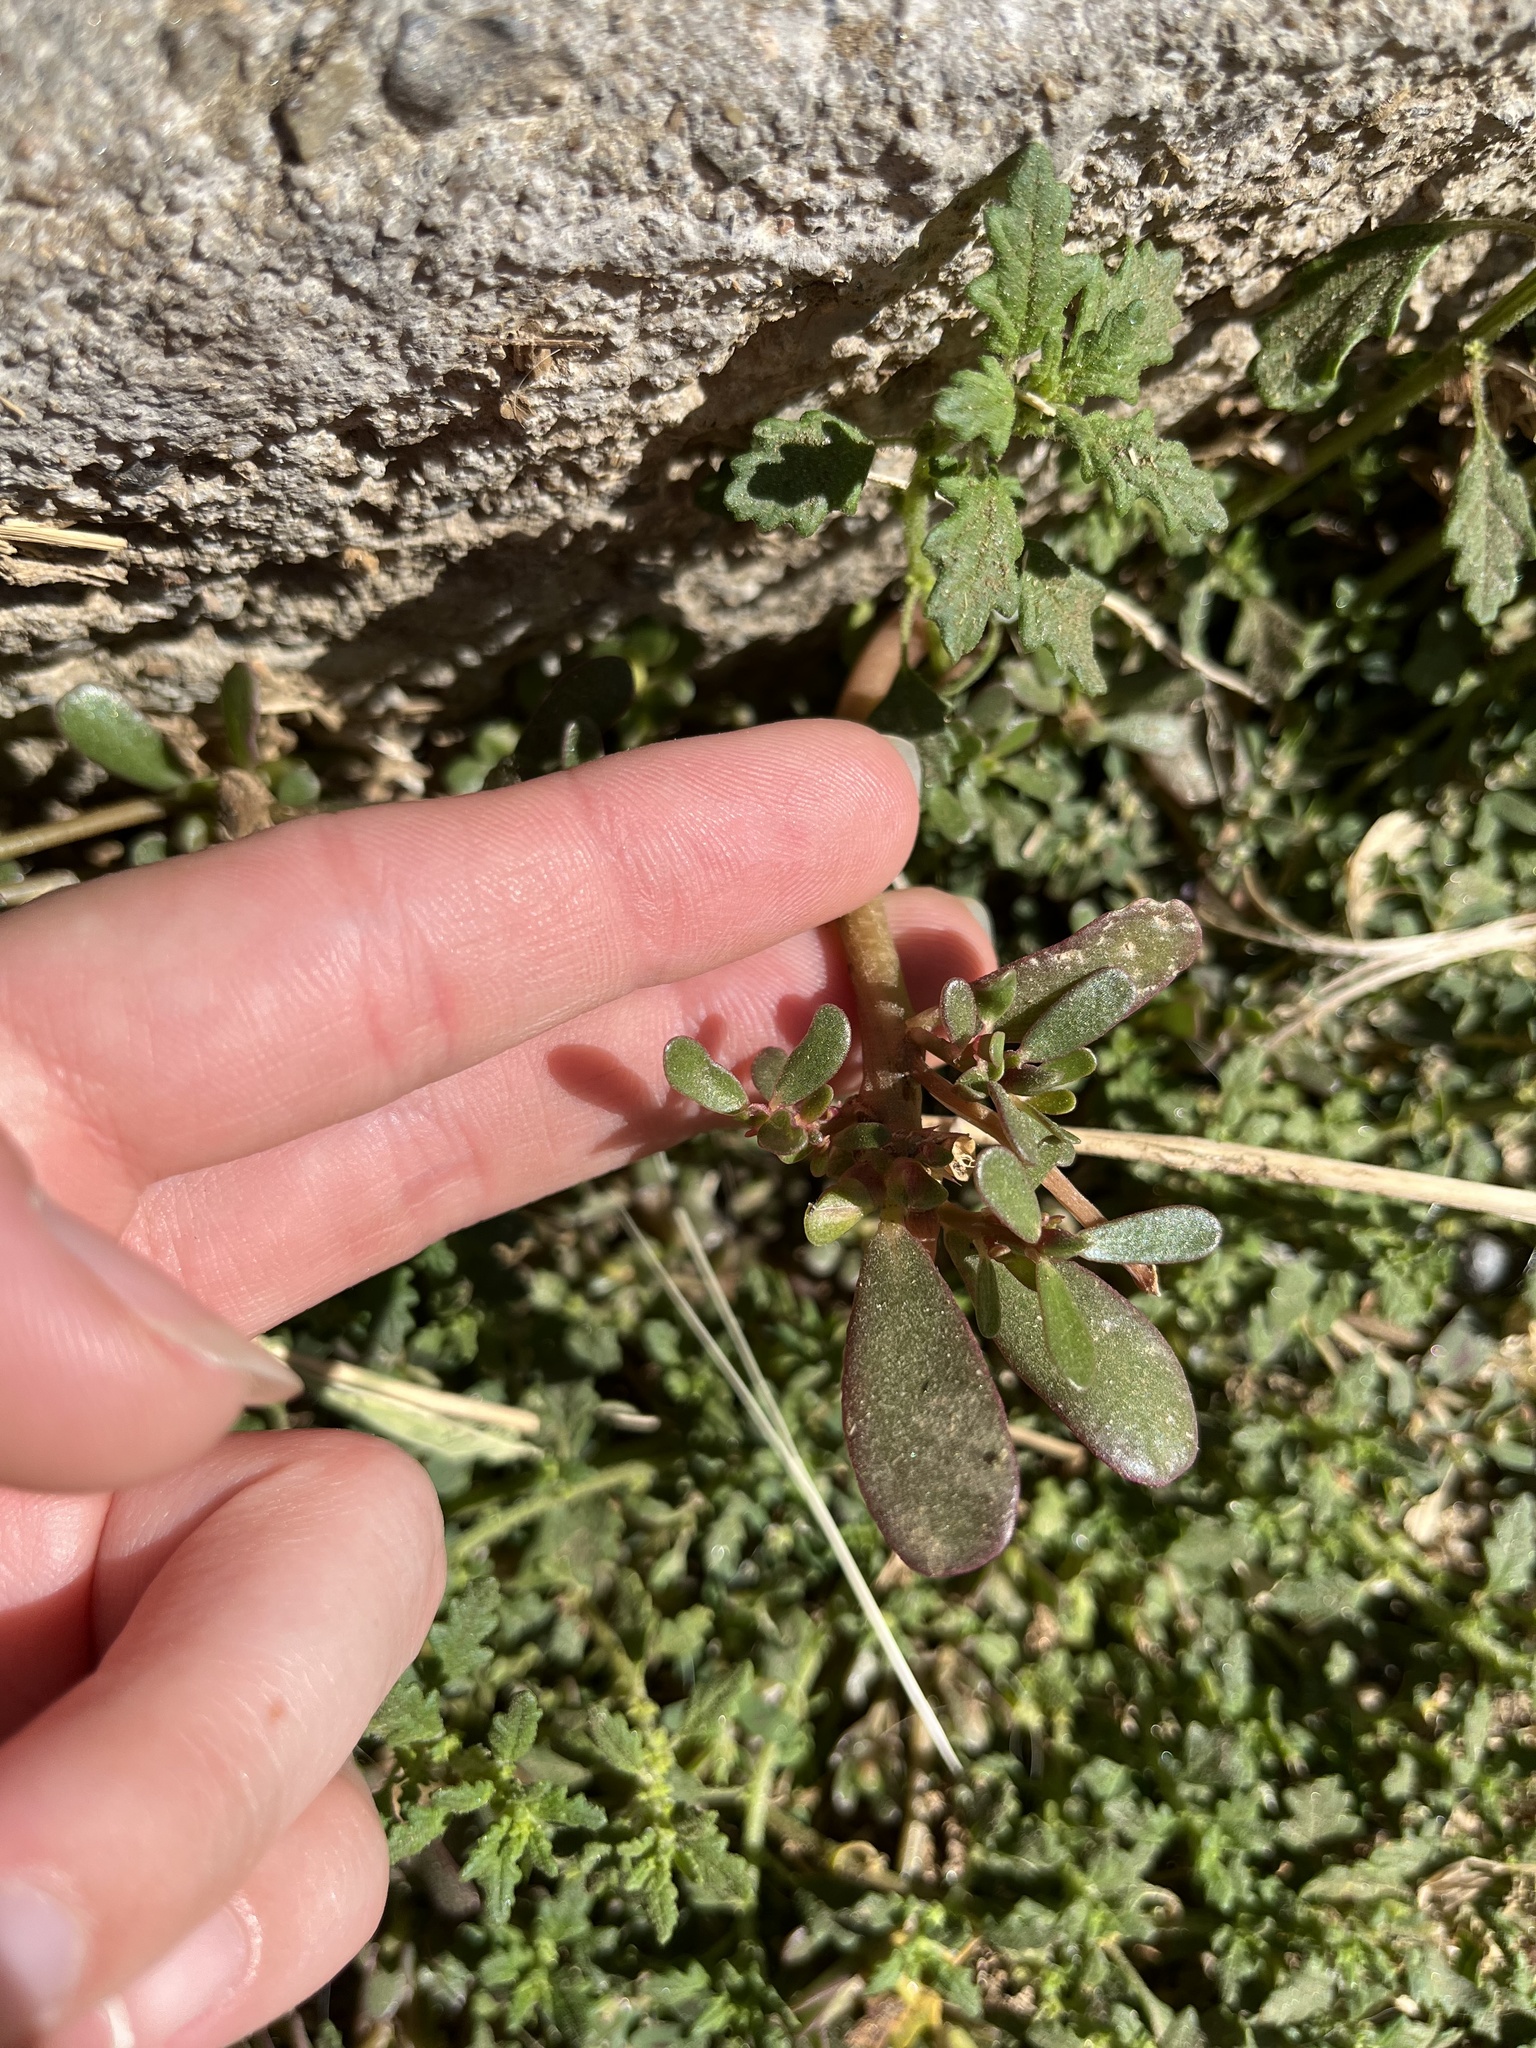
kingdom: Plantae
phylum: Tracheophyta
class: Magnoliopsida
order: Caryophyllales
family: Portulacaceae
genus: Portulaca
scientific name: Portulaca oleracea
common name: Common purslane
